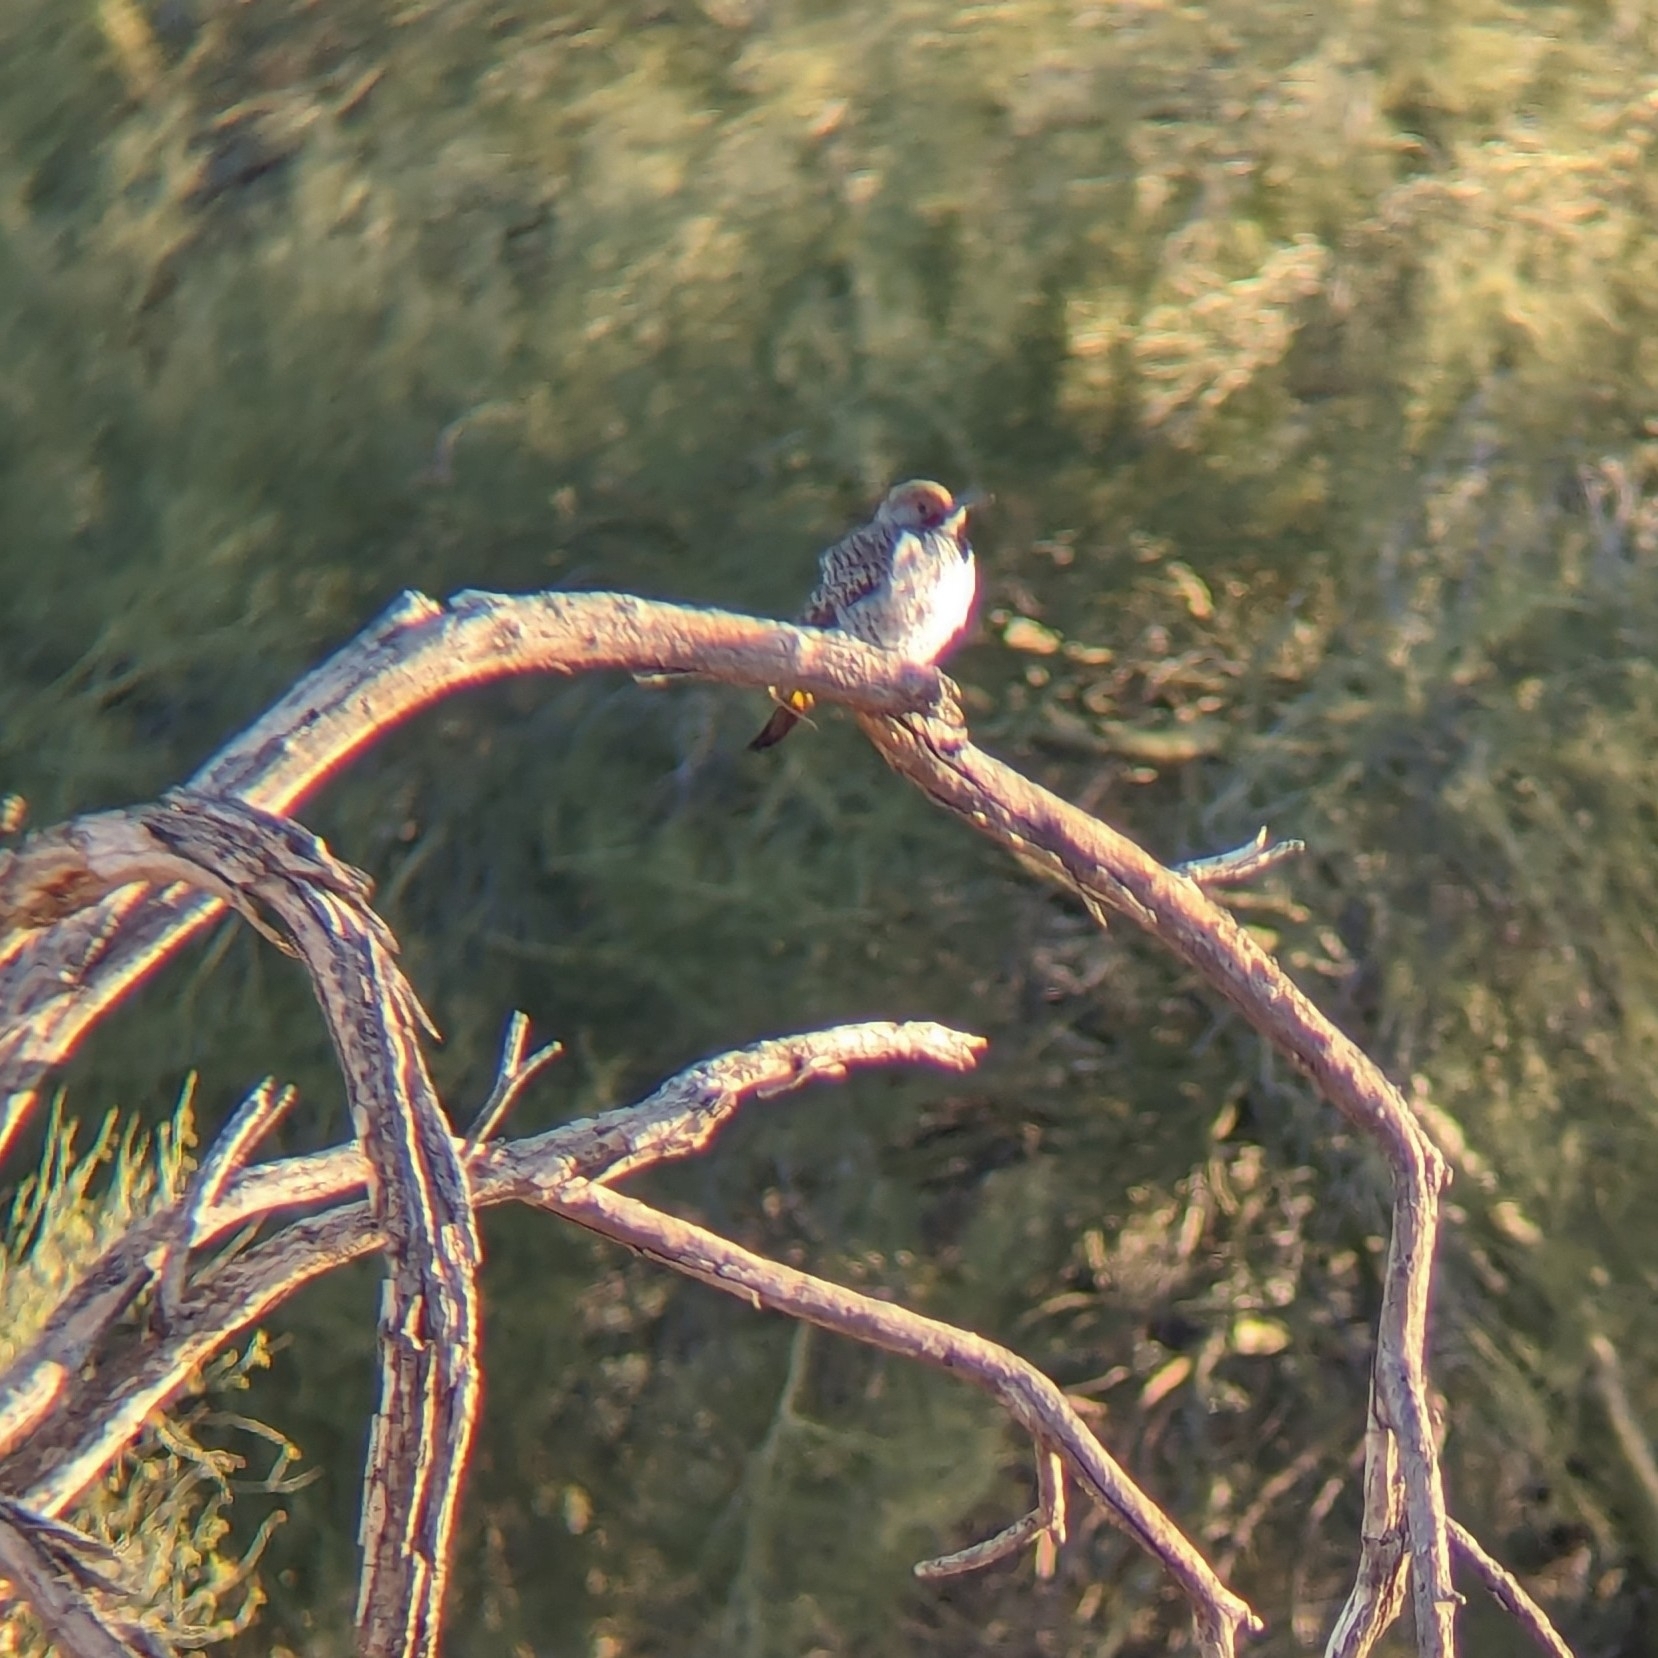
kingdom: Animalia
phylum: Chordata
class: Aves
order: Piciformes
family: Picidae
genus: Colaptes
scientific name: Colaptes chrysoides
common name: Gilded flicker
